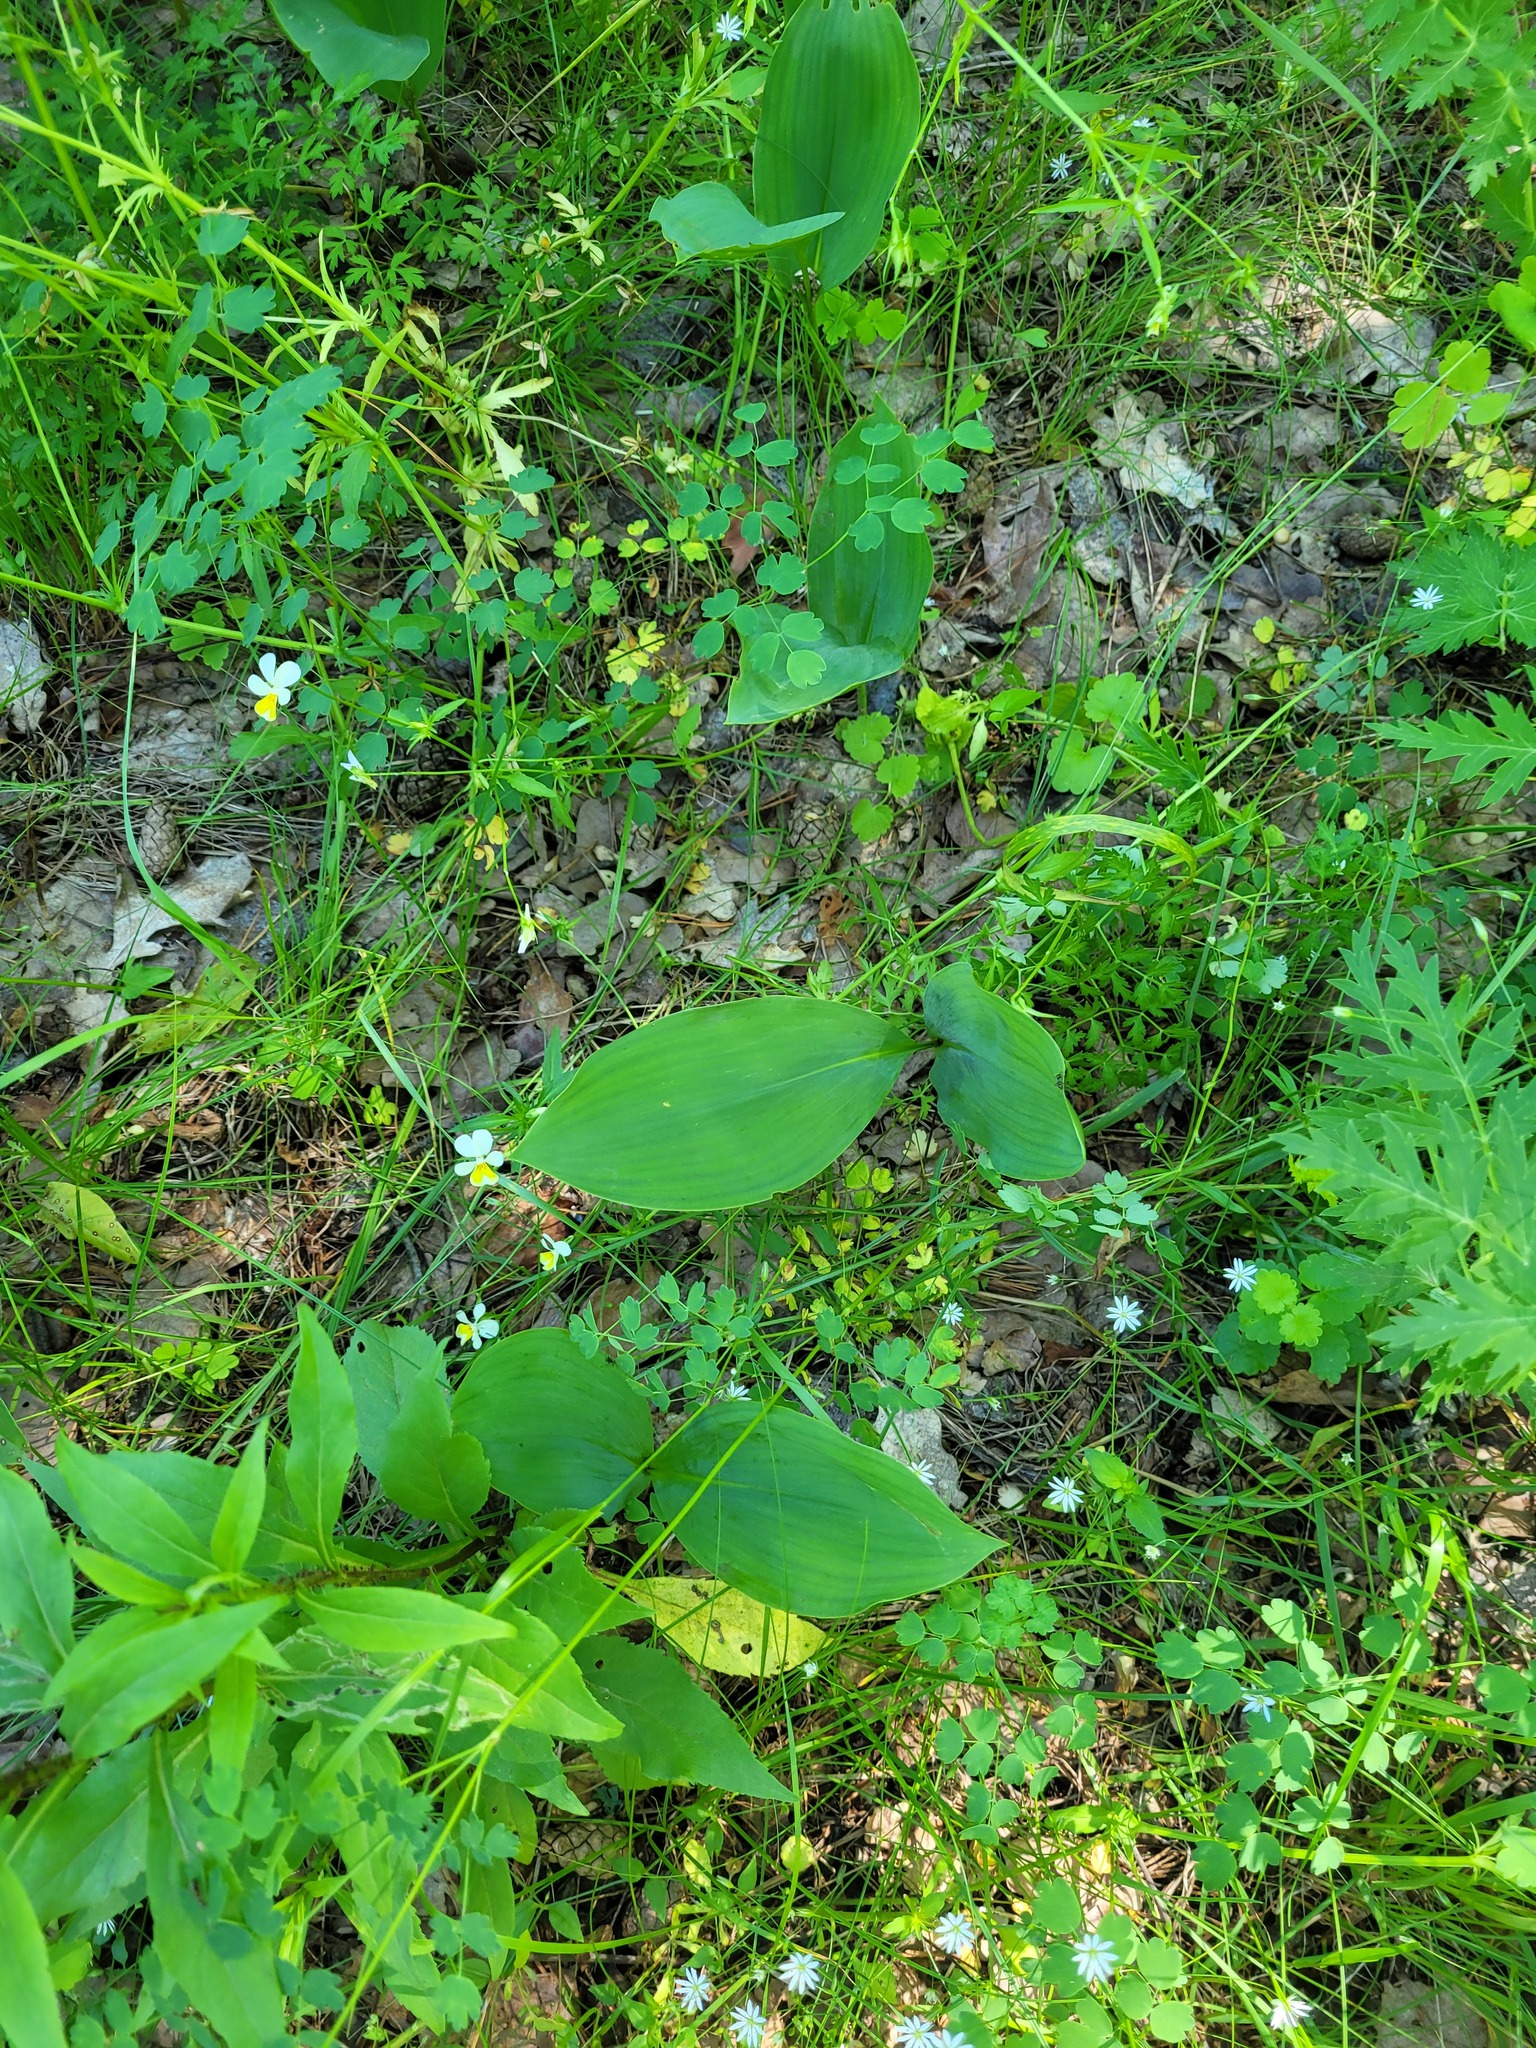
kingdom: Plantae
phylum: Tracheophyta
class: Liliopsida
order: Asparagales
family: Asparagaceae
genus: Convallaria
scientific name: Convallaria majalis
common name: Lily-of-the-valley
